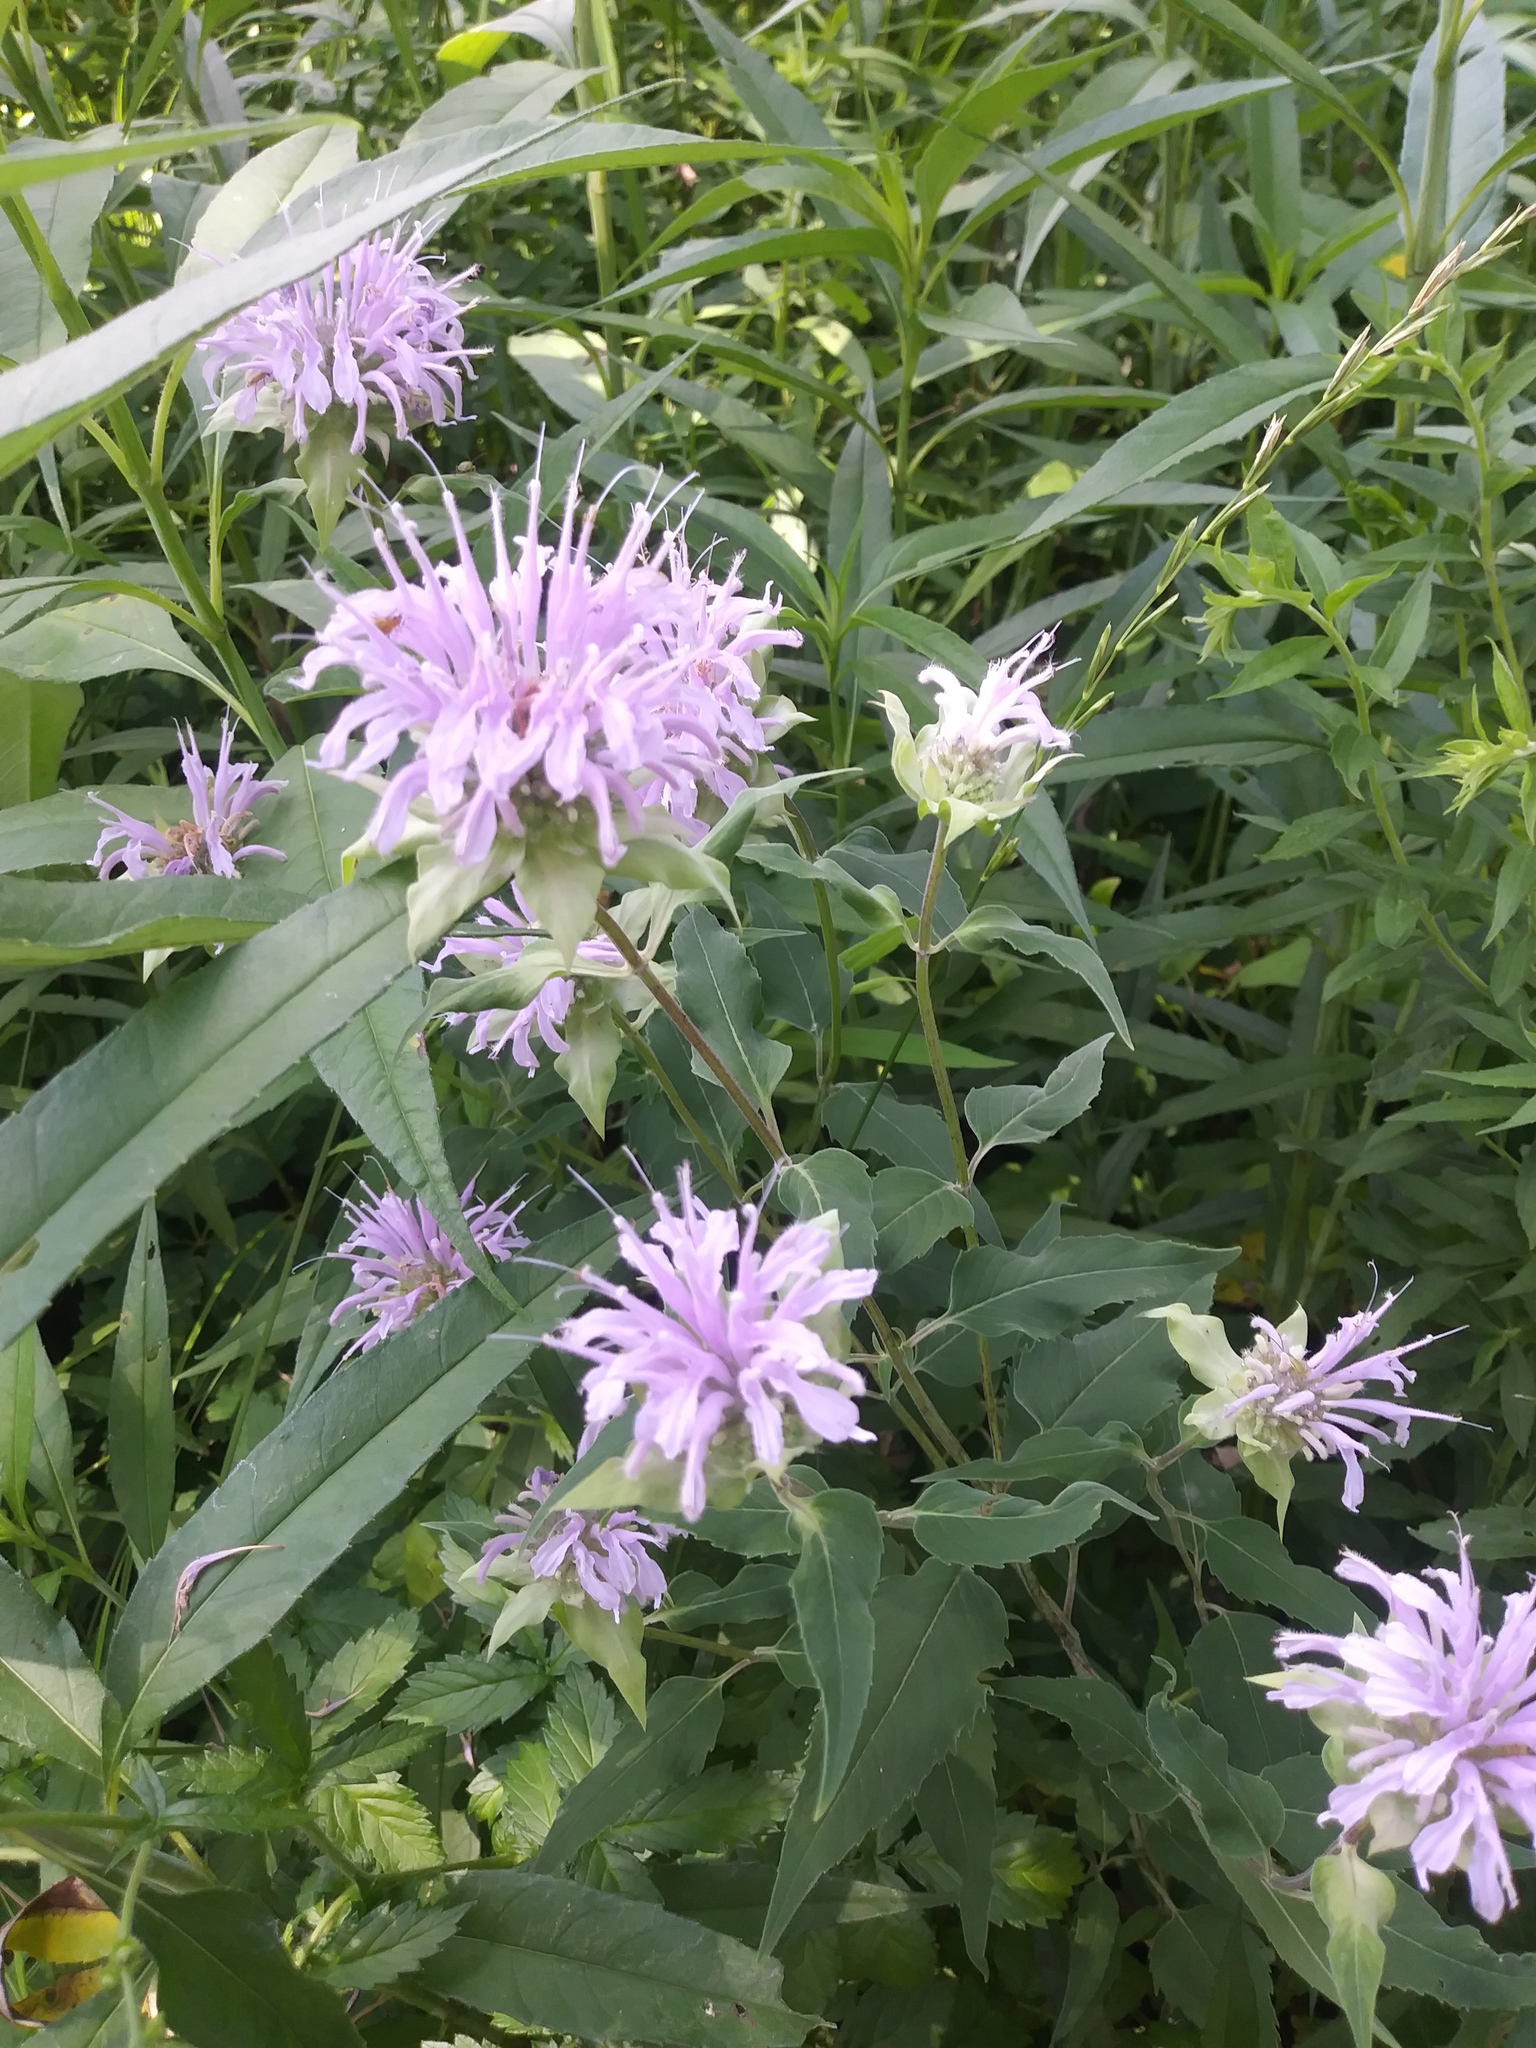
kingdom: Plantae
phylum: Tracheophyta
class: Magnoliopsida
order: Lamiales
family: Lamiaceae
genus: Monarda
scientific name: Monarda fistulosa
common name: Purple beebalm
